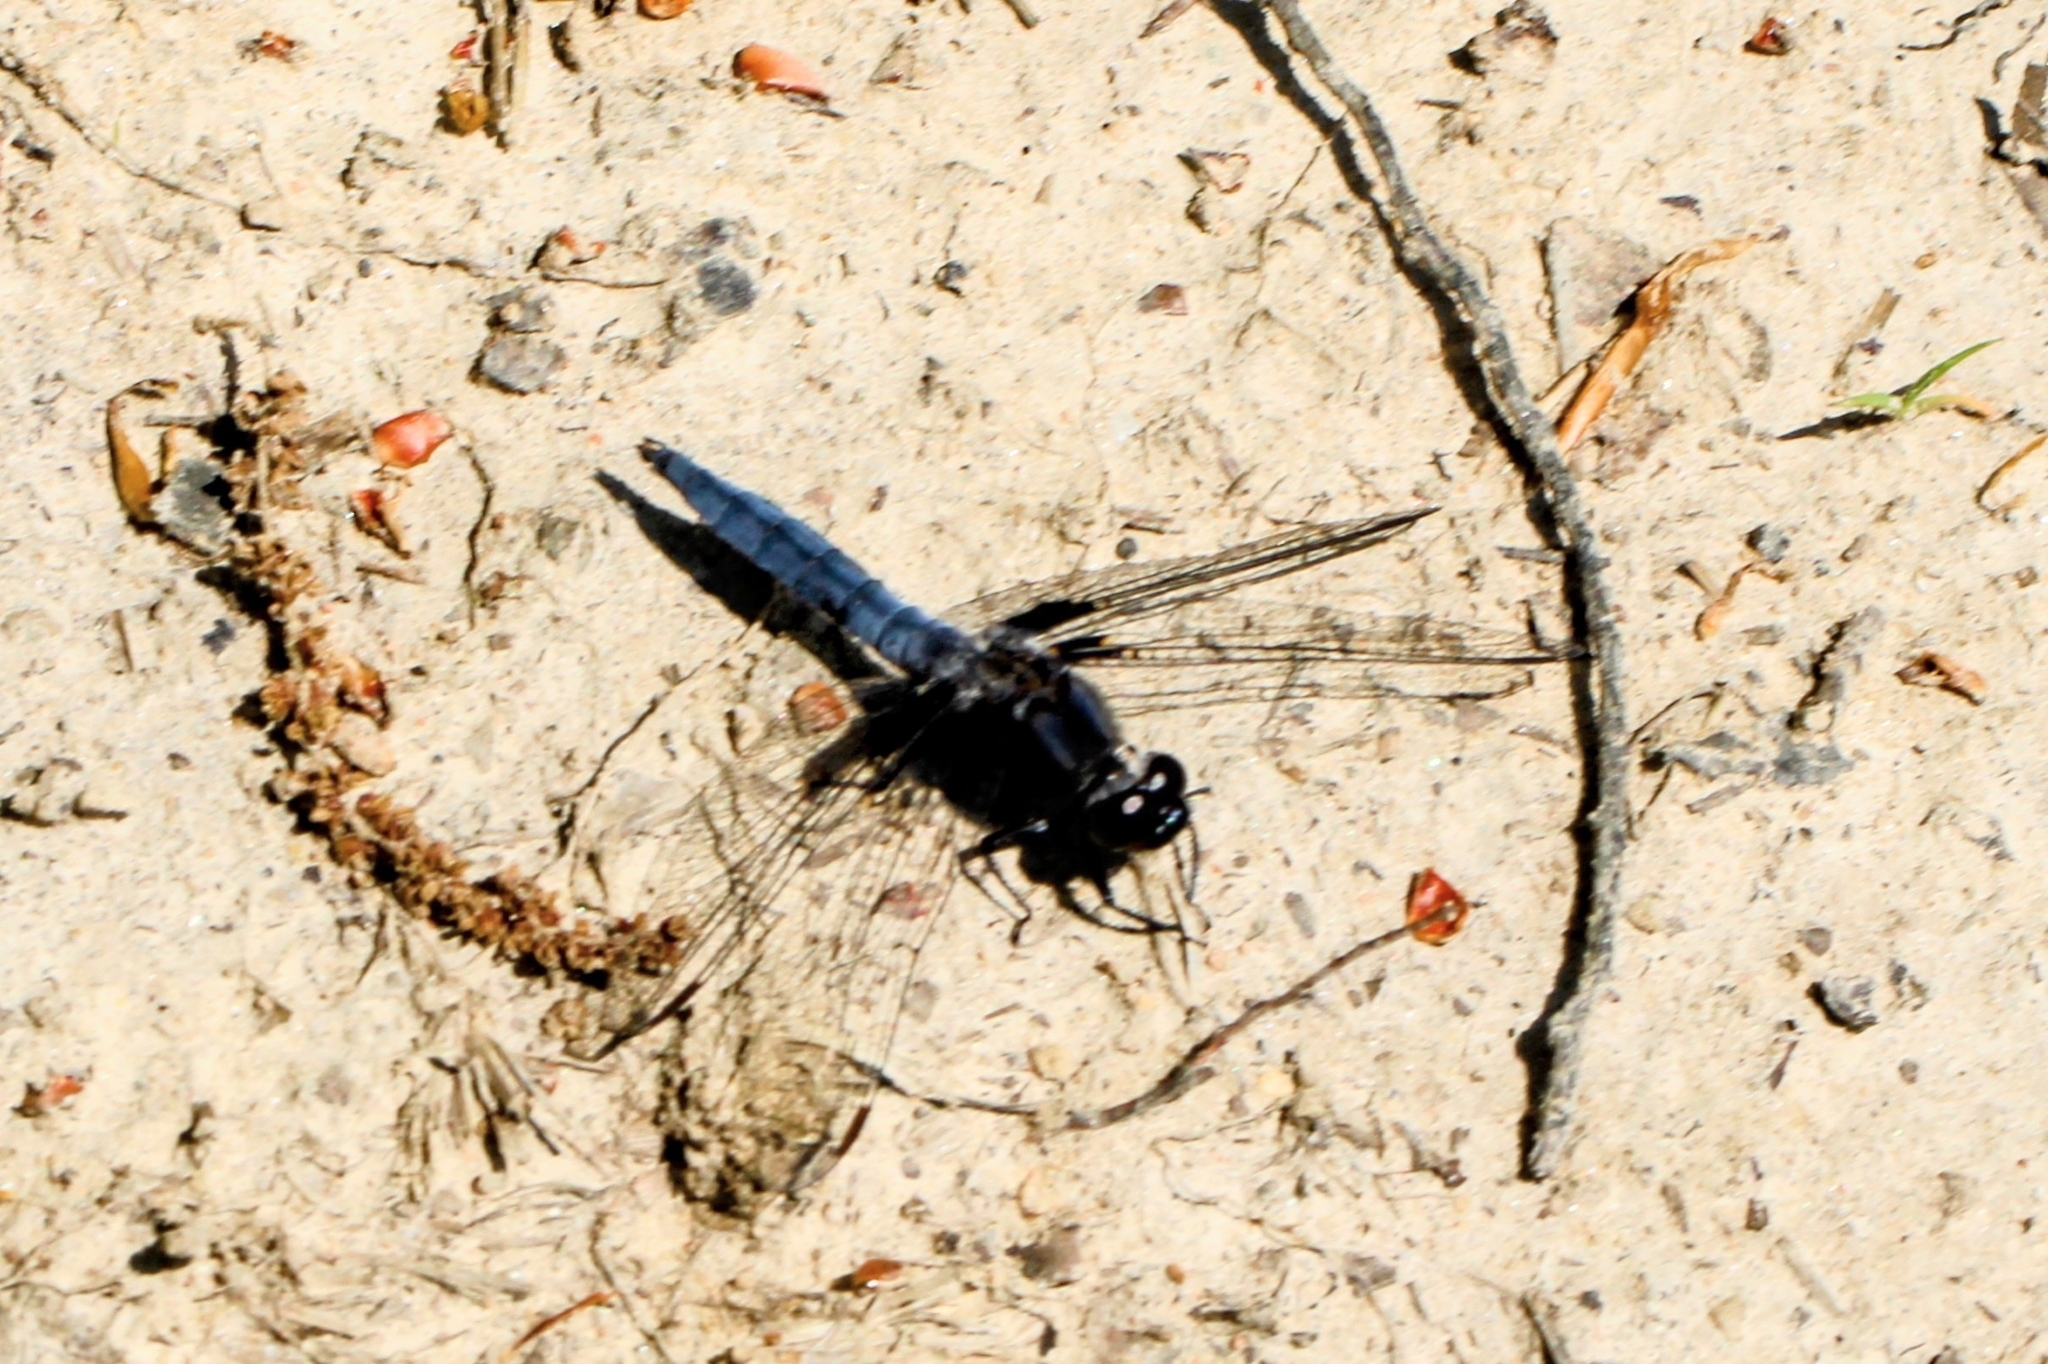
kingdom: Animalia
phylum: Arthropoda
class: Insecta
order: Odonata
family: Libellulidae
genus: Ladona
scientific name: Ladona deplanata
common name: Blue corporal
